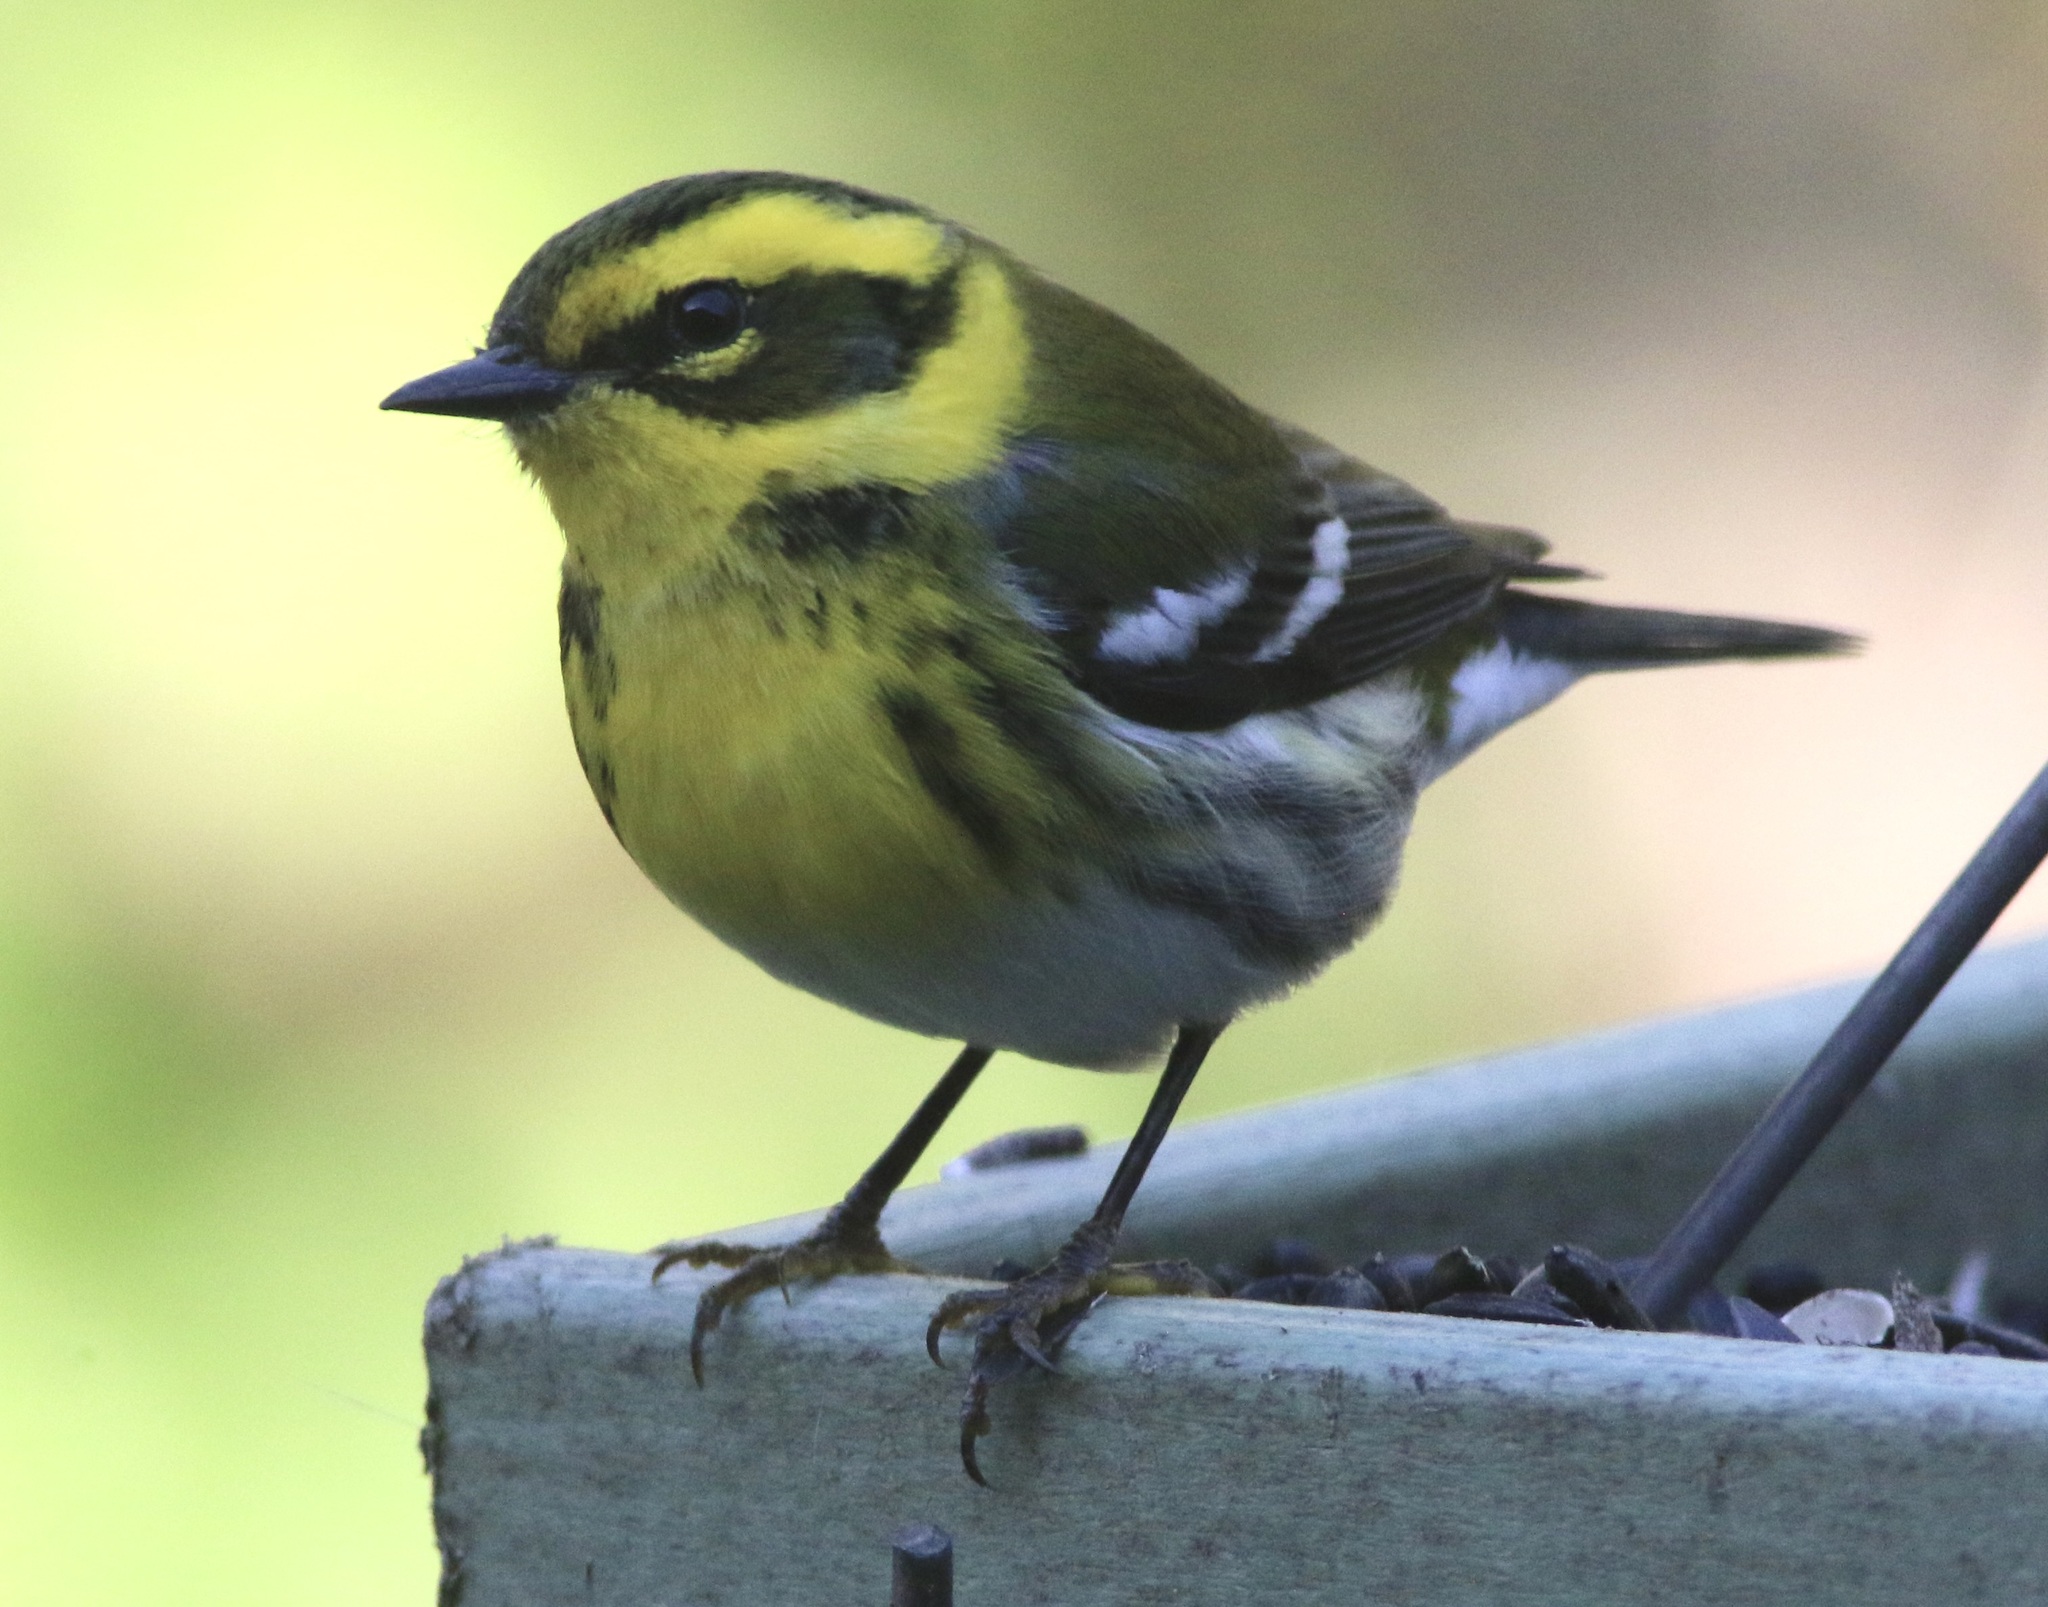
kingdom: Animalia
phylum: Chordata
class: Aves
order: Passeriformes
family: Parulidae
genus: Setophaga
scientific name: Setophaga townsendi
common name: Townsend's warbler
